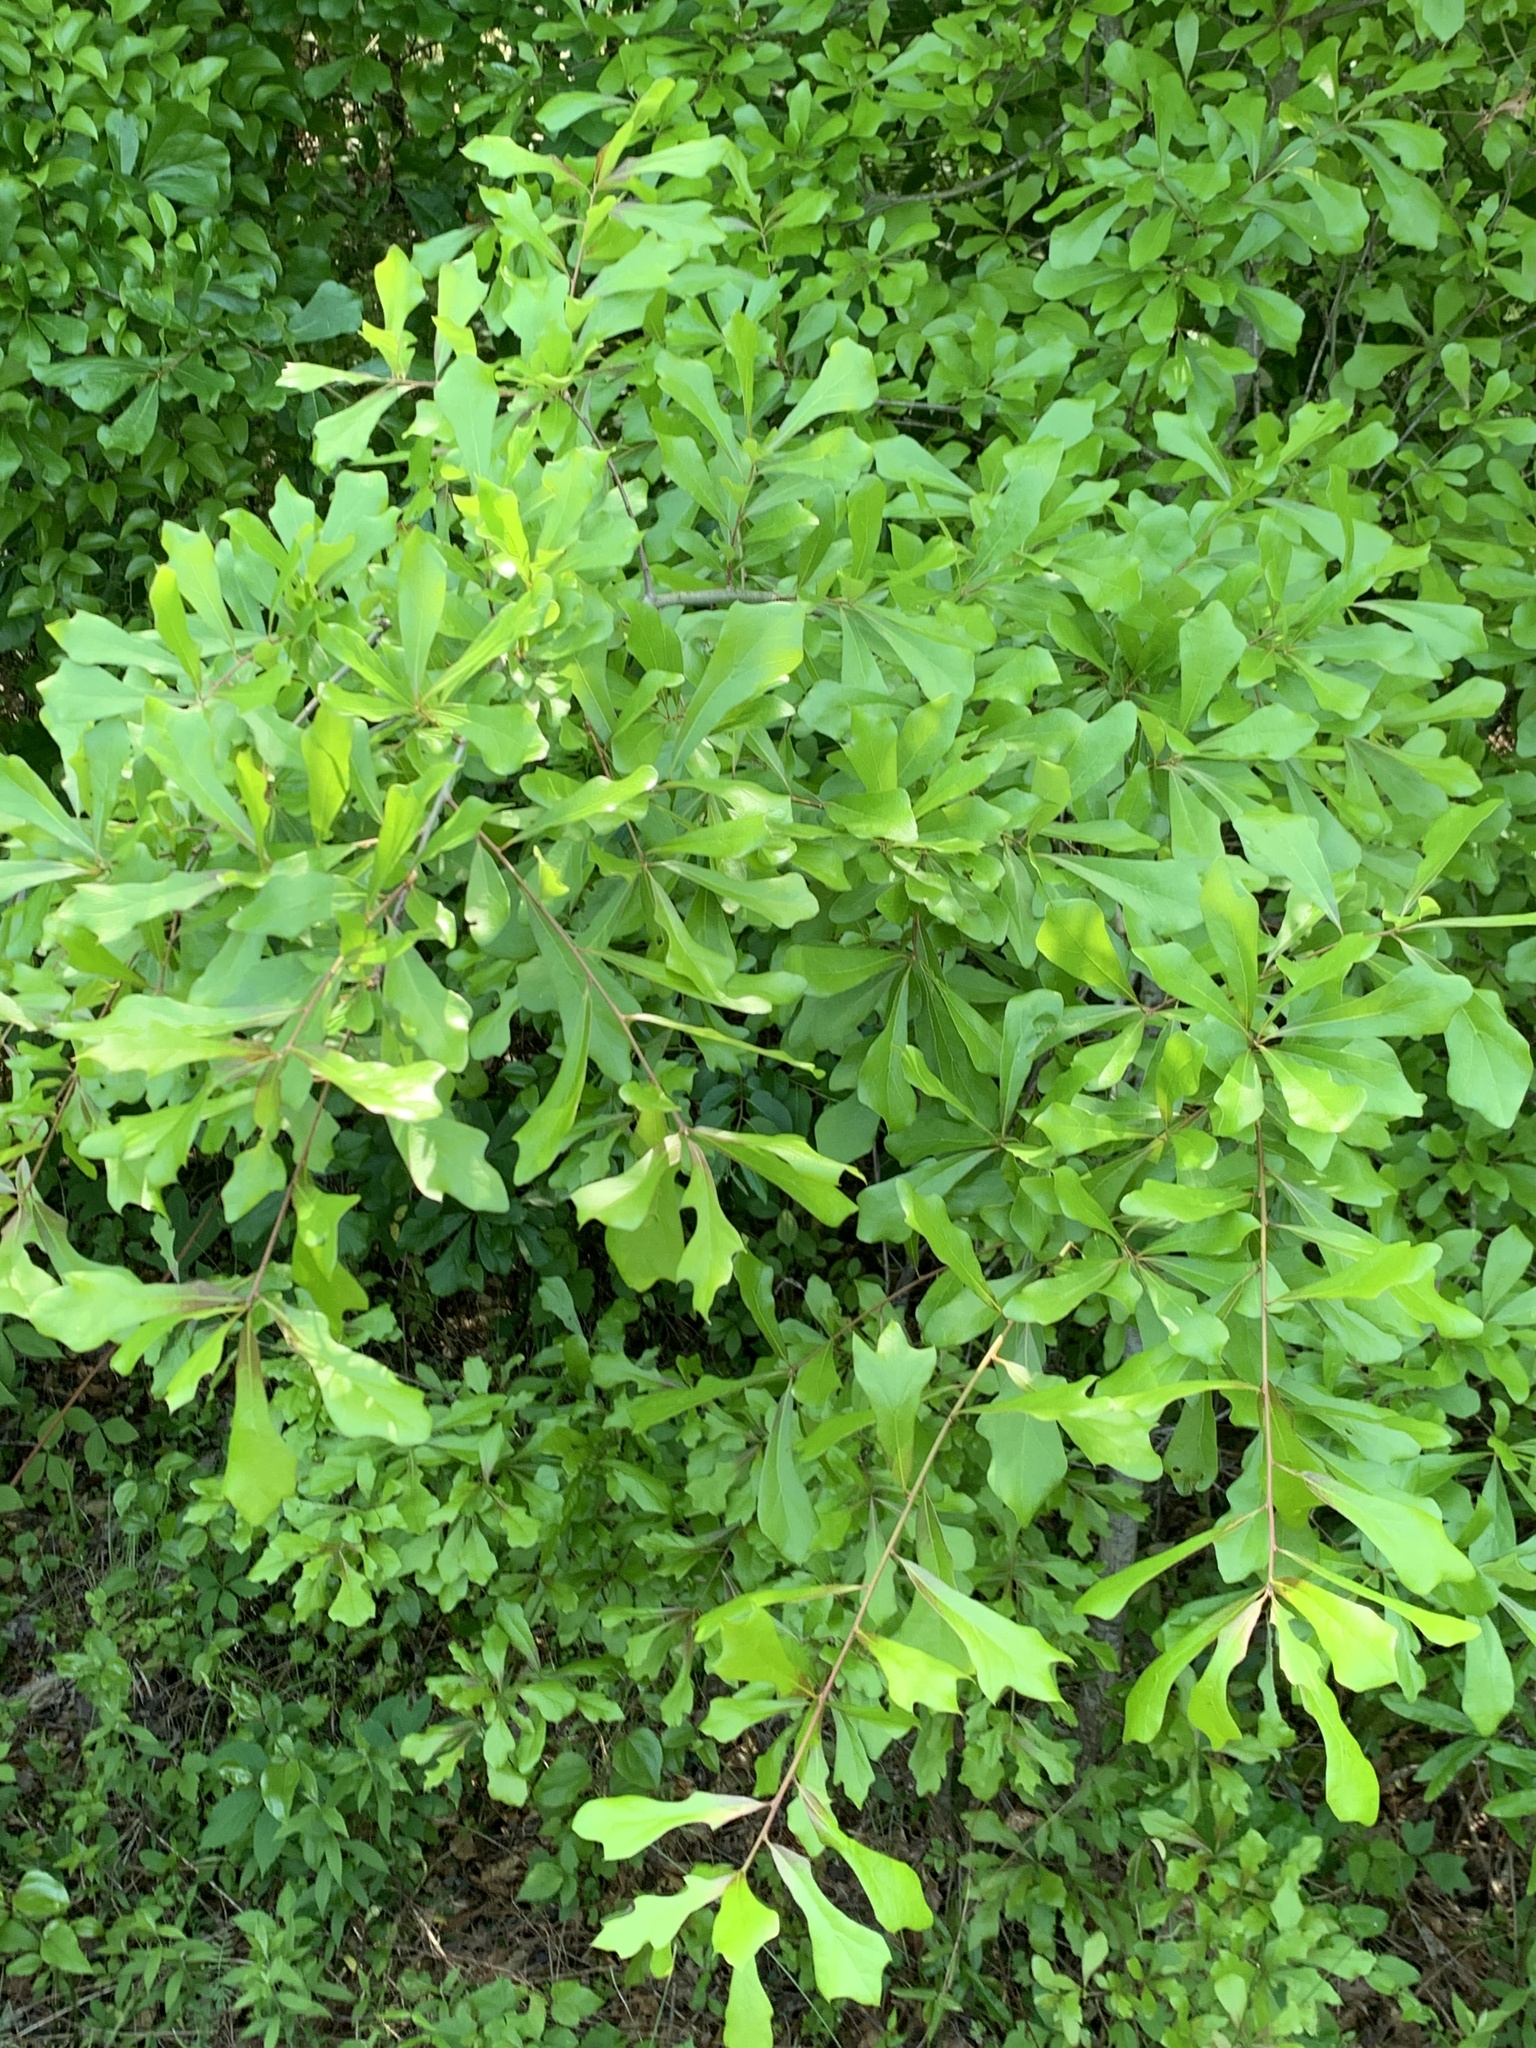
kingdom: Plantae
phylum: Tracheophyta
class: Magnoliopsida
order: Fagales
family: Fagaceae
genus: Quercus
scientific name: Quercus nigra
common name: Water oak
